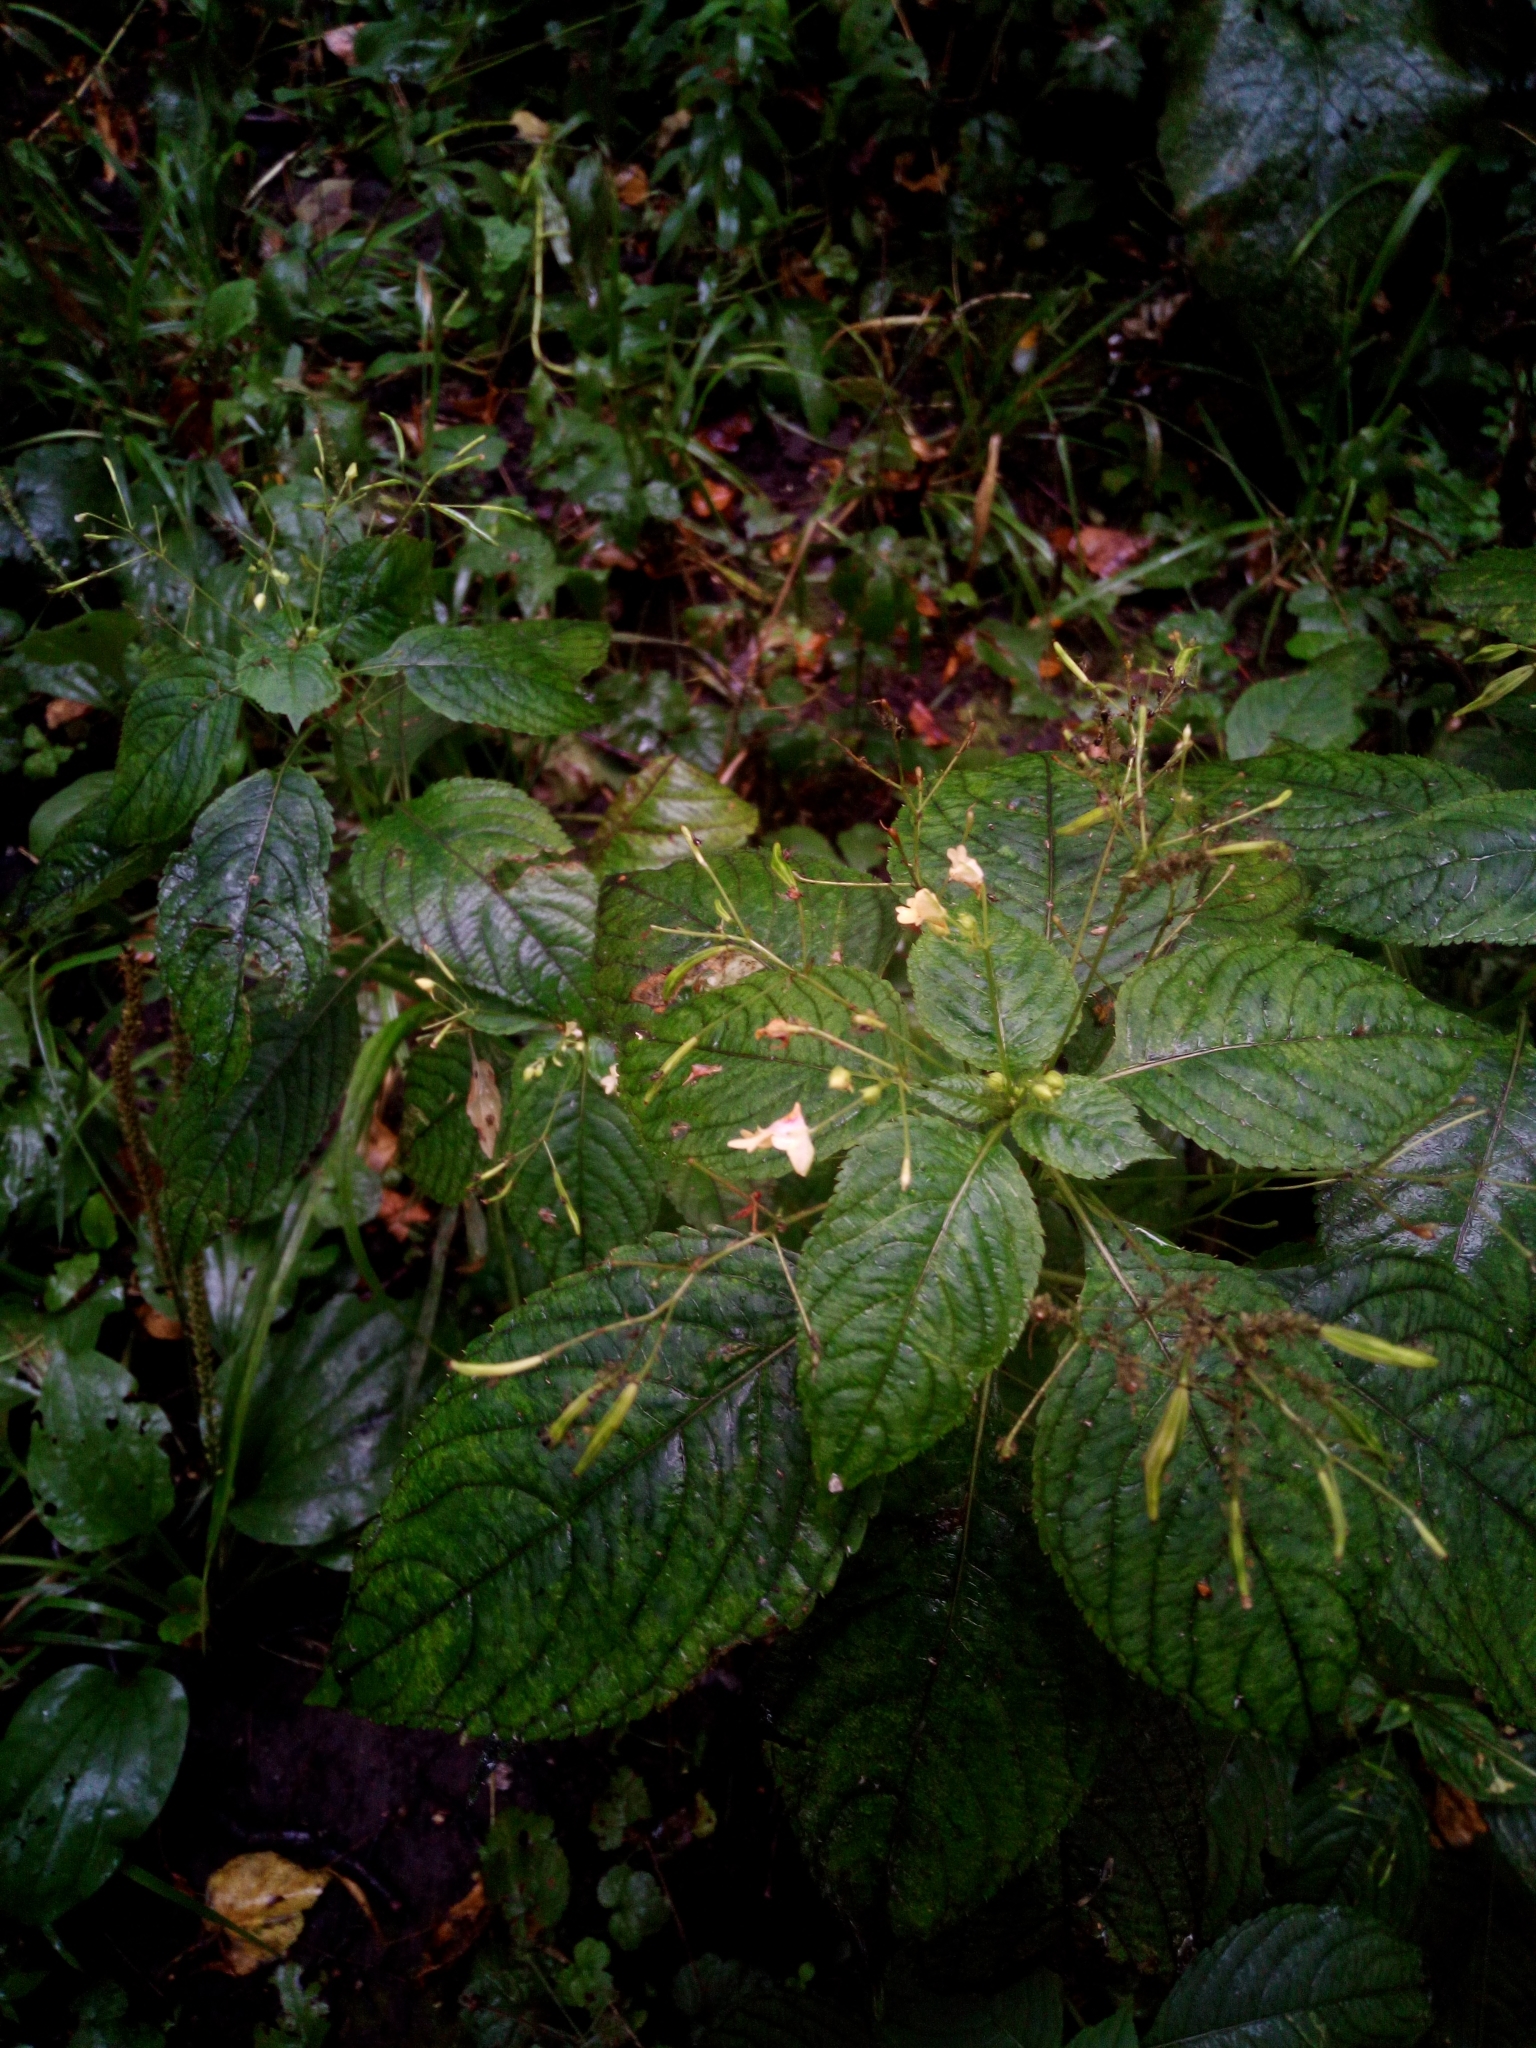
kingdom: Plantae
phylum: Tracheophyta
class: Magnoliopsida
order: Ericales
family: Balsaminaceae
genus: Impatiens
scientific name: Impatiens parviflora
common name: Small balsam
